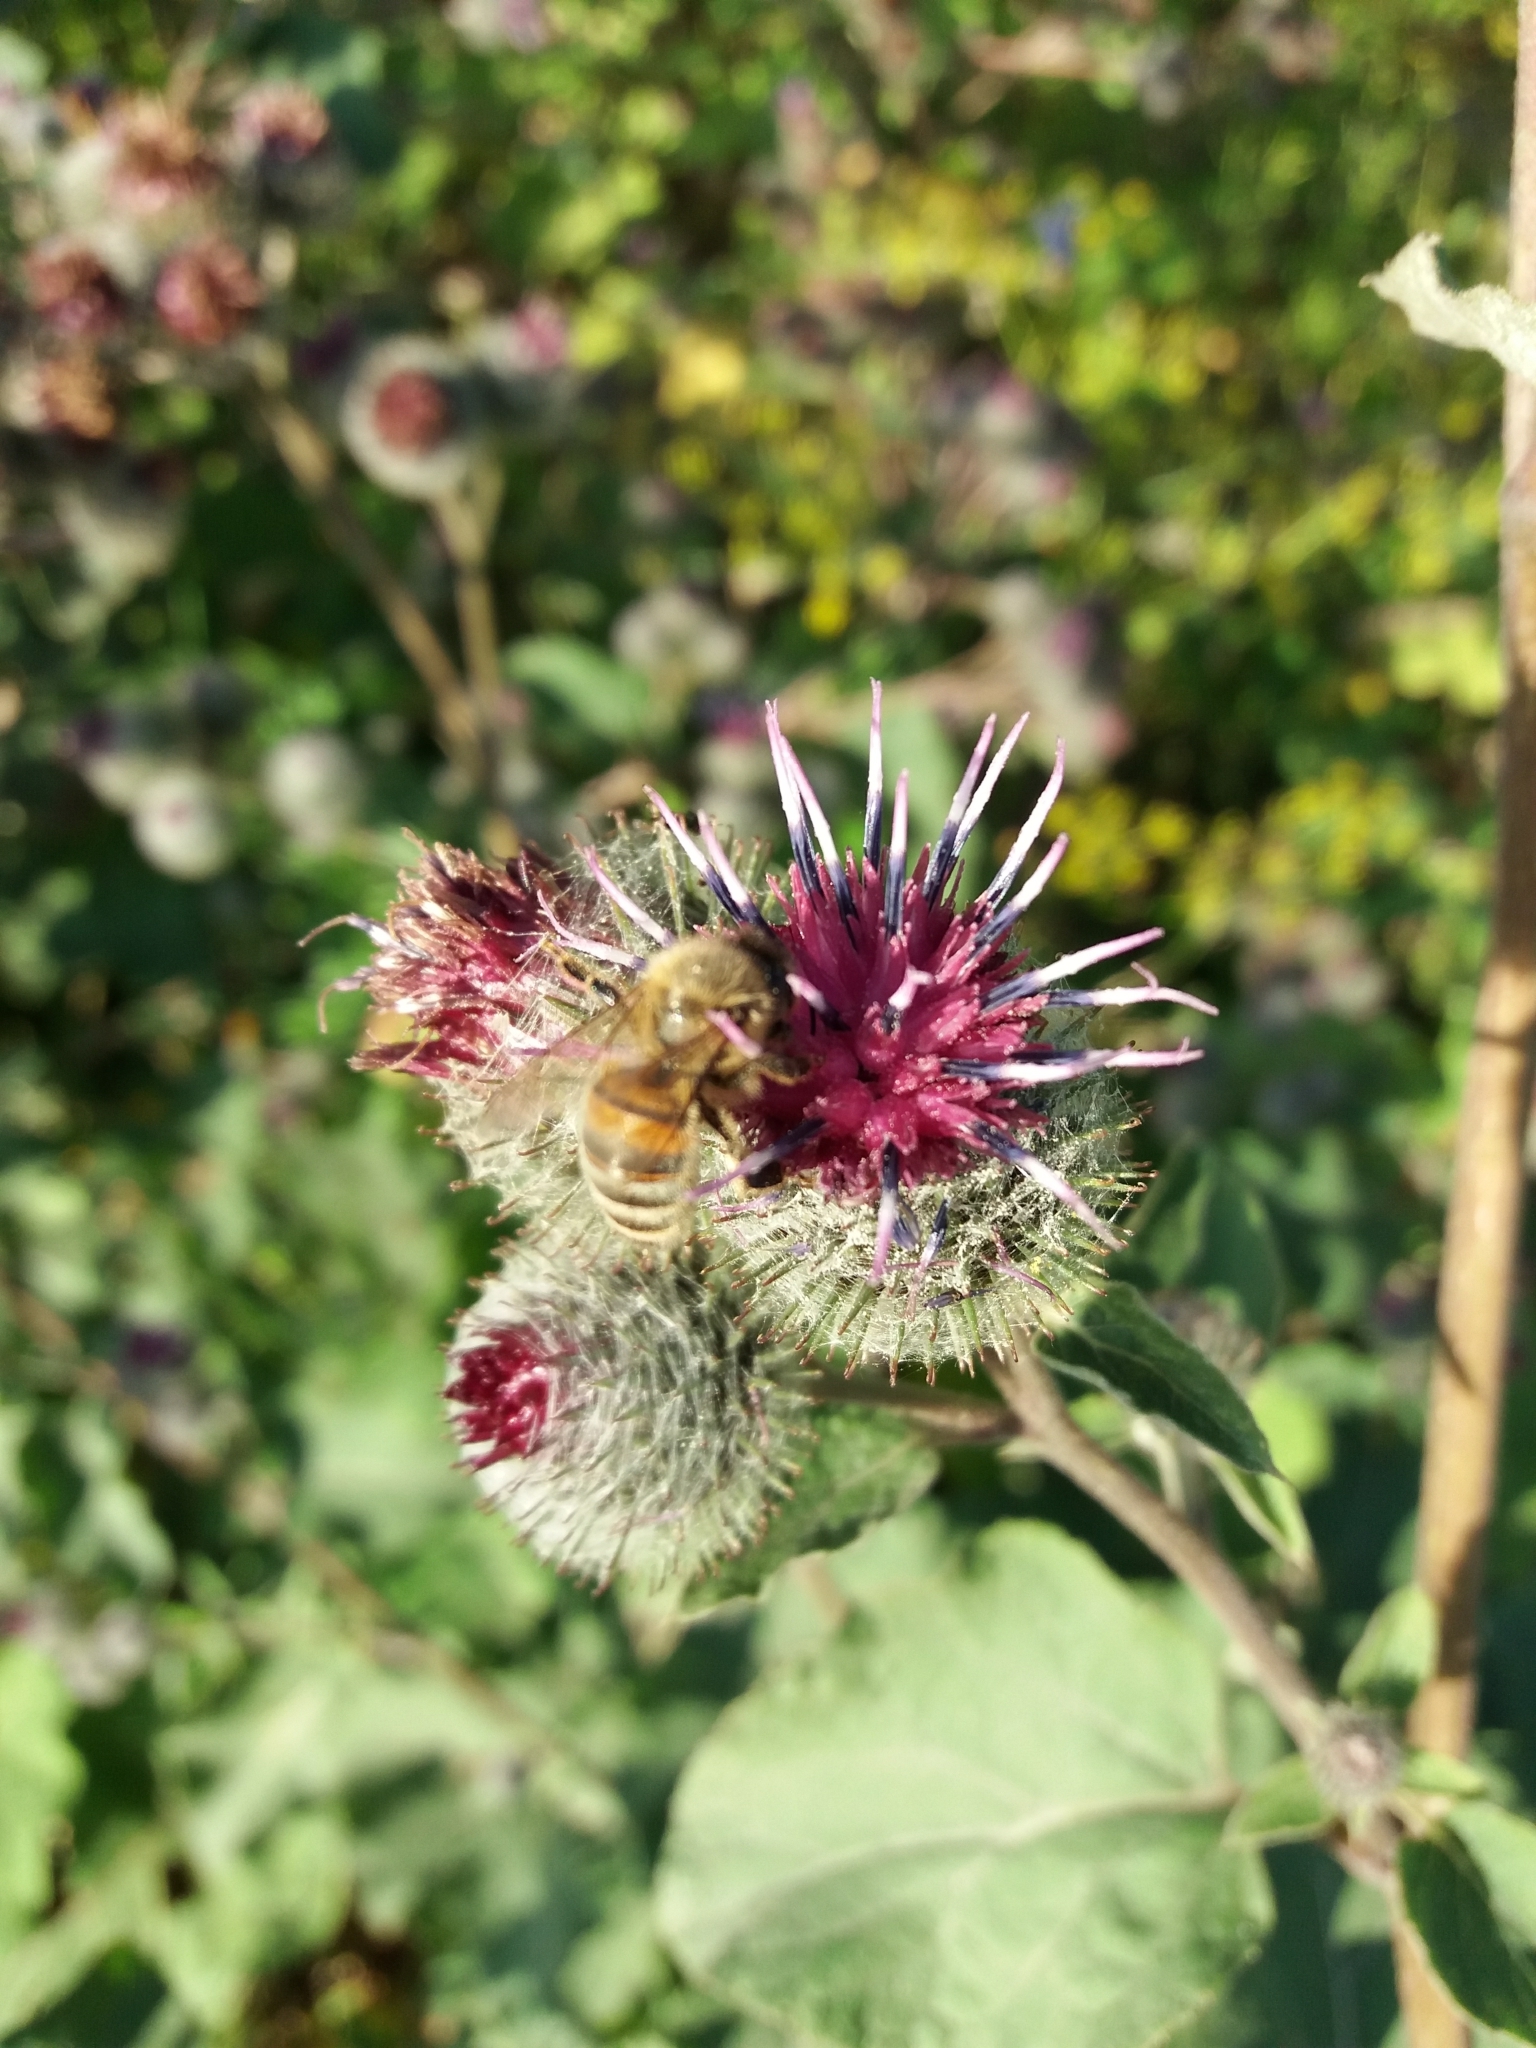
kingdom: Animalia
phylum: Arthropoda
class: Insecta
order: Hymenoptera
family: Apidae
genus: Apis
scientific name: Apis mellifera
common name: Honey bee
